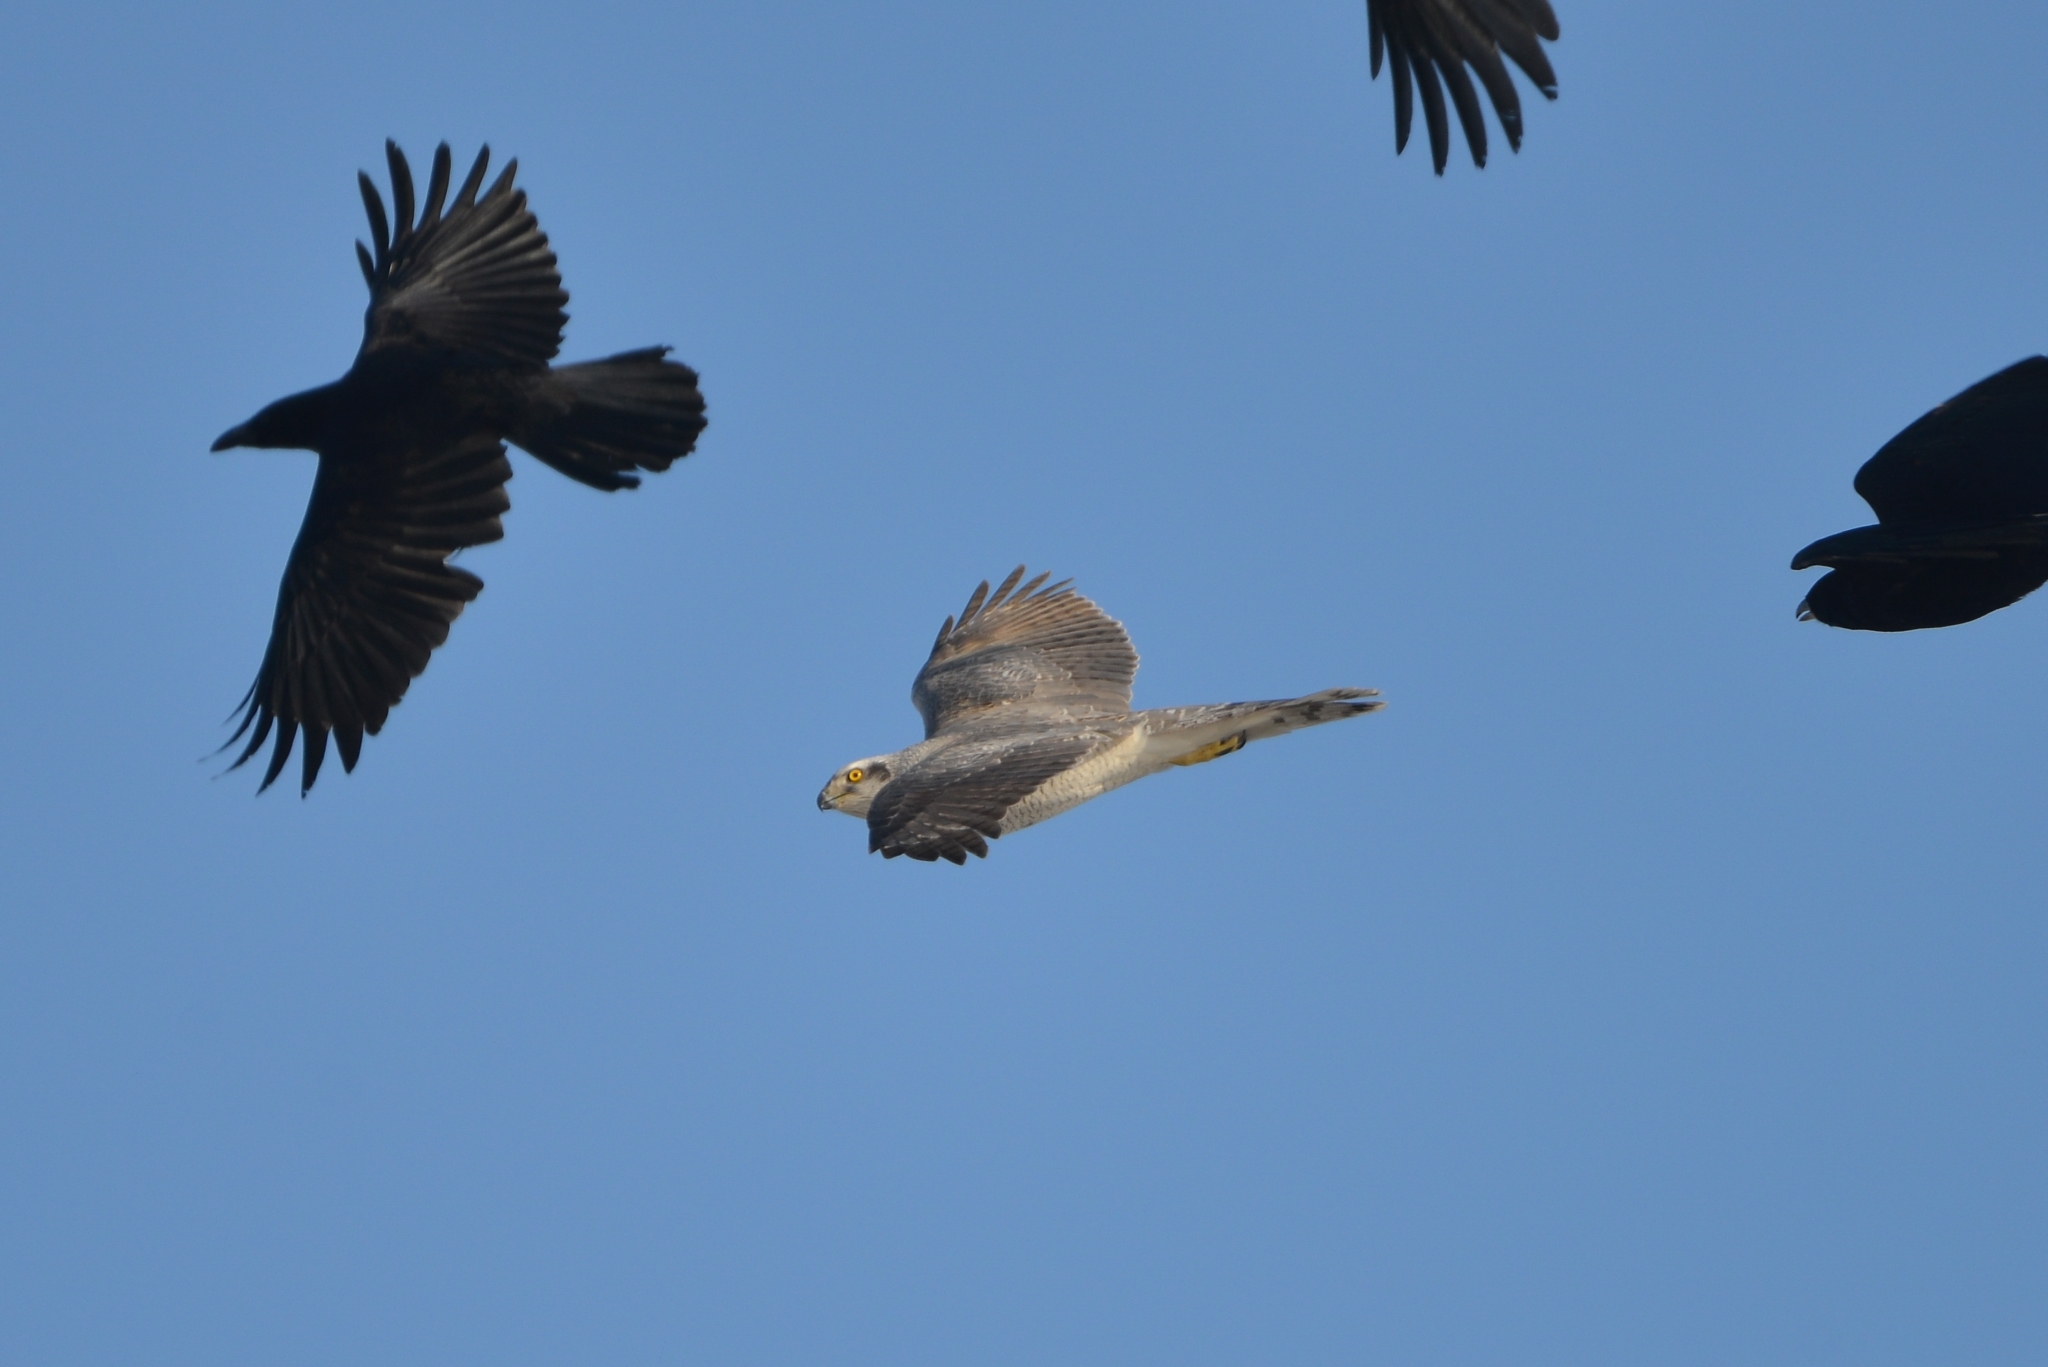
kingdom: Animalia
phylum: Chordata
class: Aves
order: Accipitriformes
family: Accipitridae
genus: Accipiter
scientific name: Accipiter gentilis
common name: Northern goshawk
